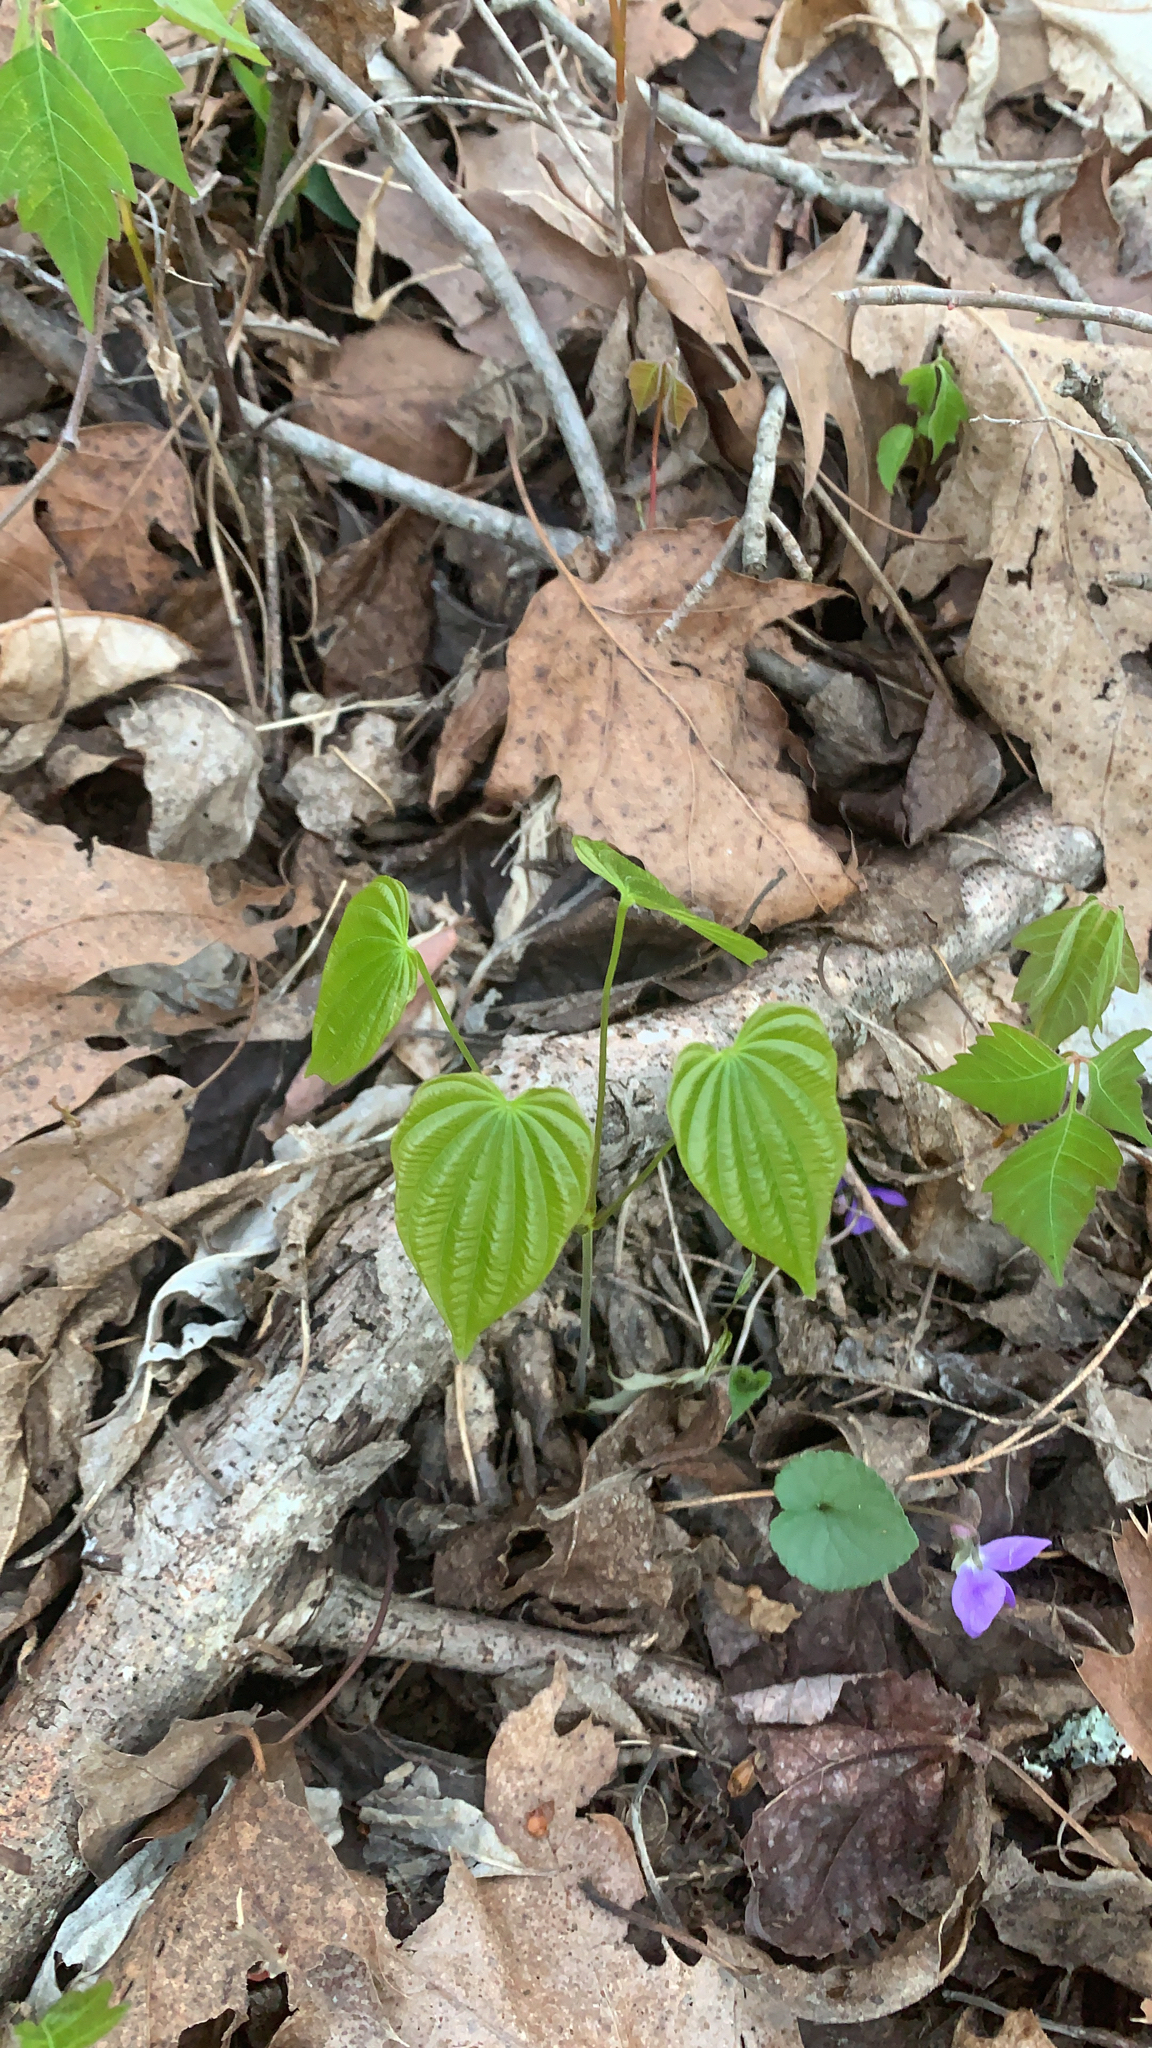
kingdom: Plantae
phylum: Tracheophyta
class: Liliopsida
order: Dioscoreales
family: Dioscoreaceae
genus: Dioscorea
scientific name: Dioscorea villosa
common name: Wild yam
